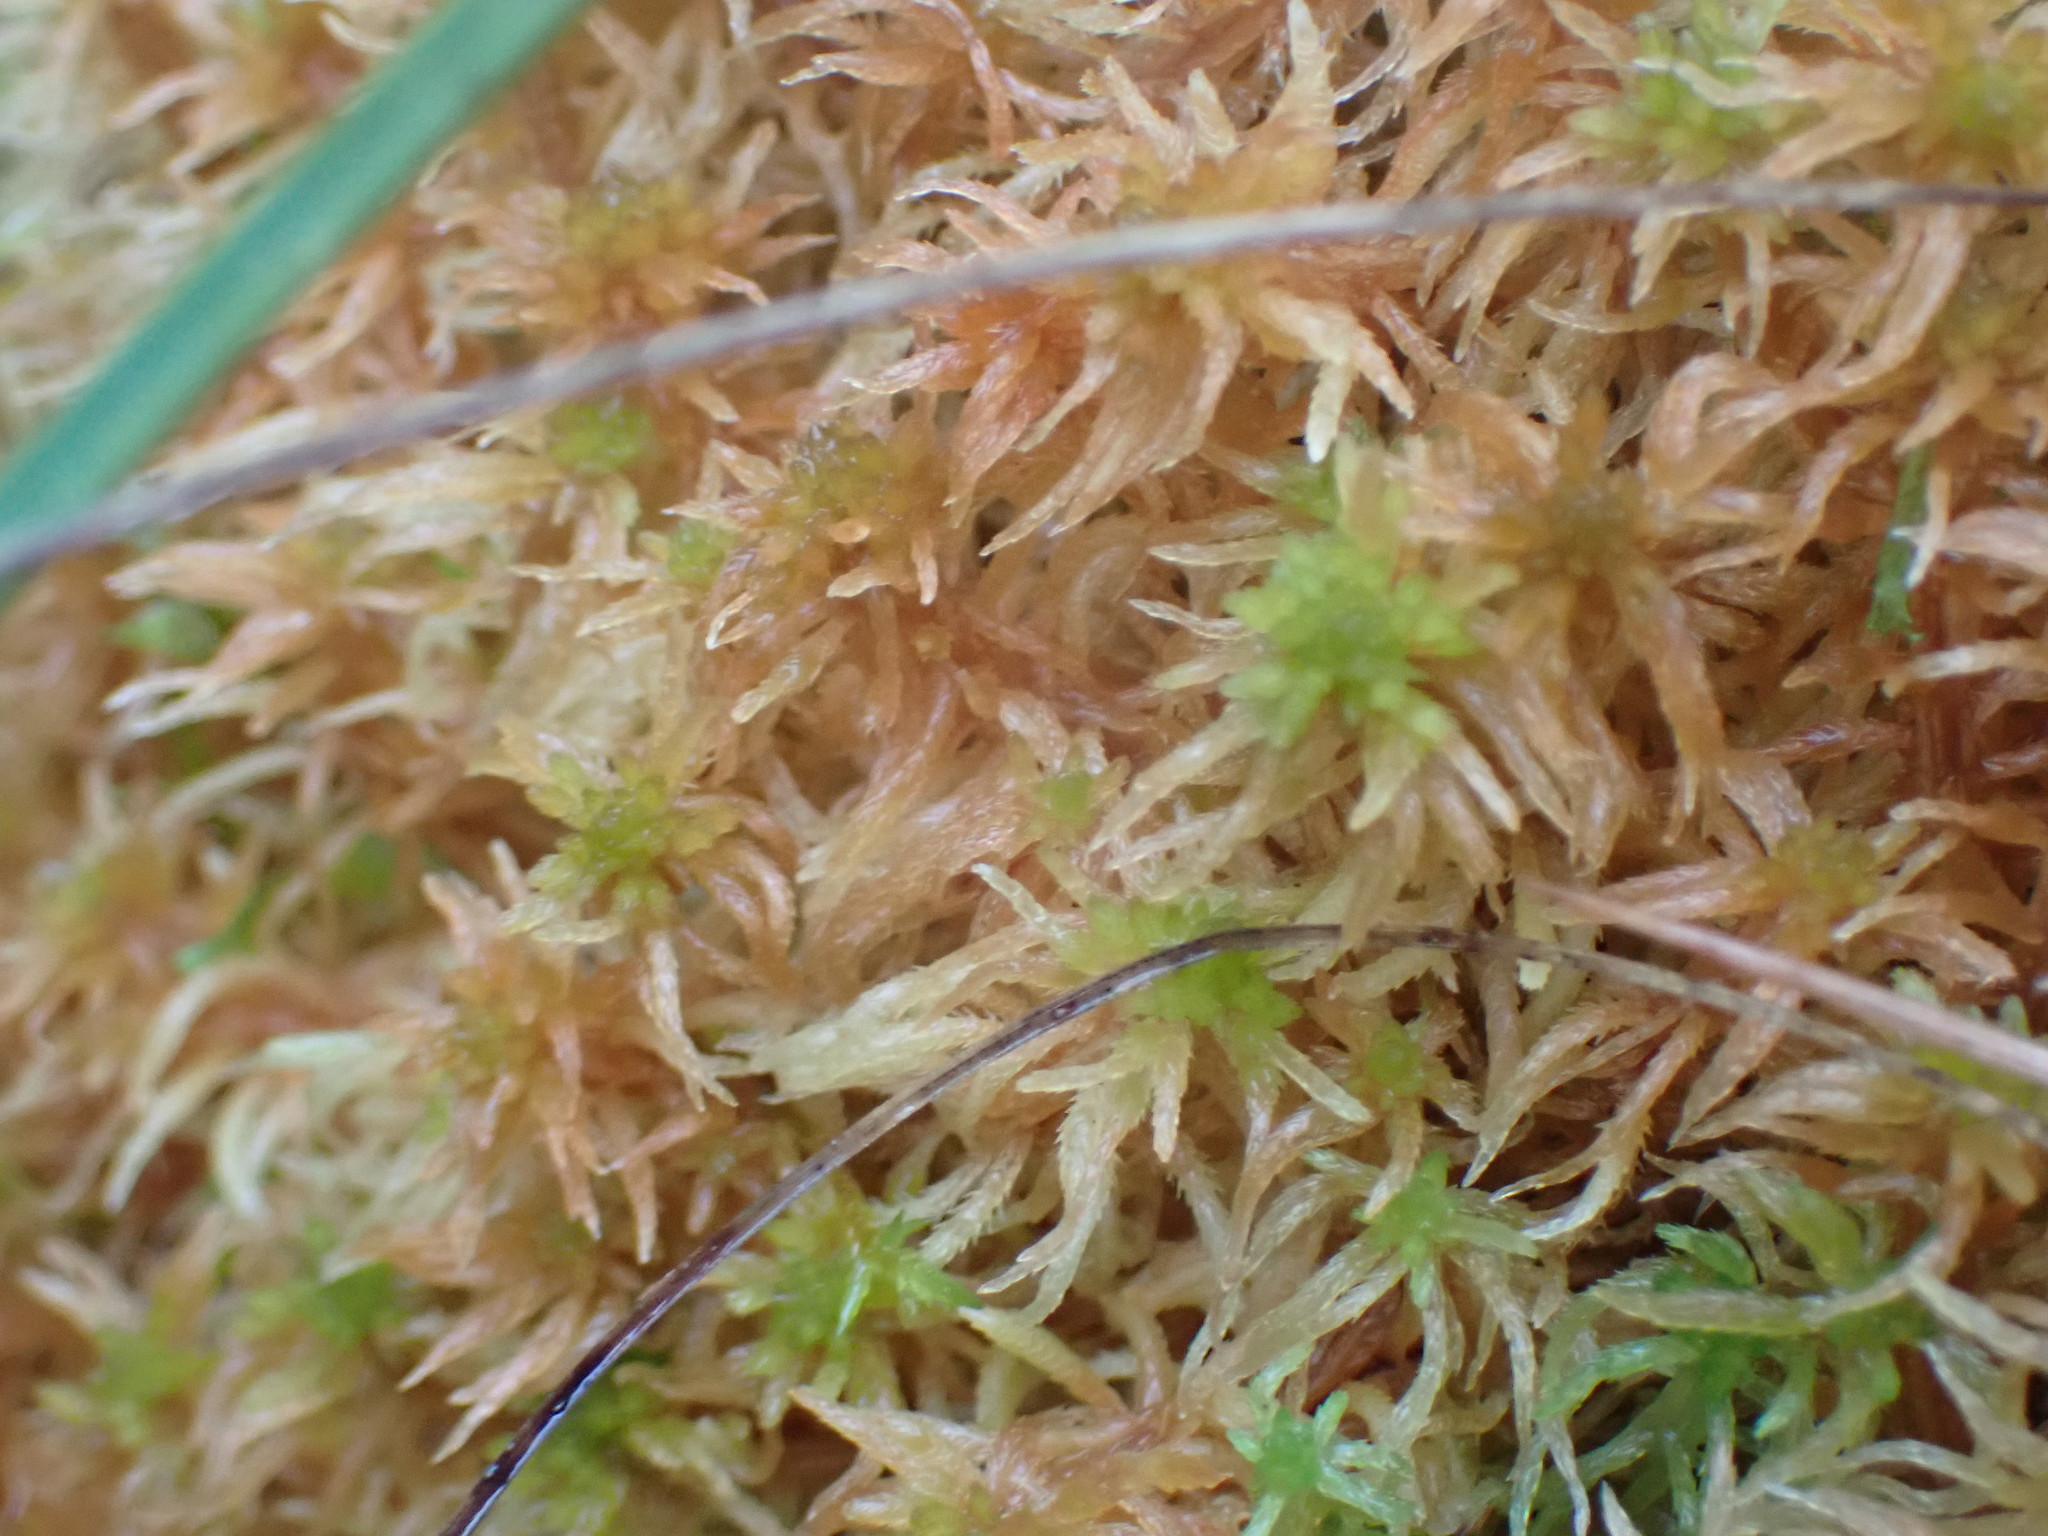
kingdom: Plantae
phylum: Bryophyta
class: Sphagnopsida
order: Sphagnales
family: Sphagnaceae
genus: Sphagnum
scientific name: Sphagnum teres
